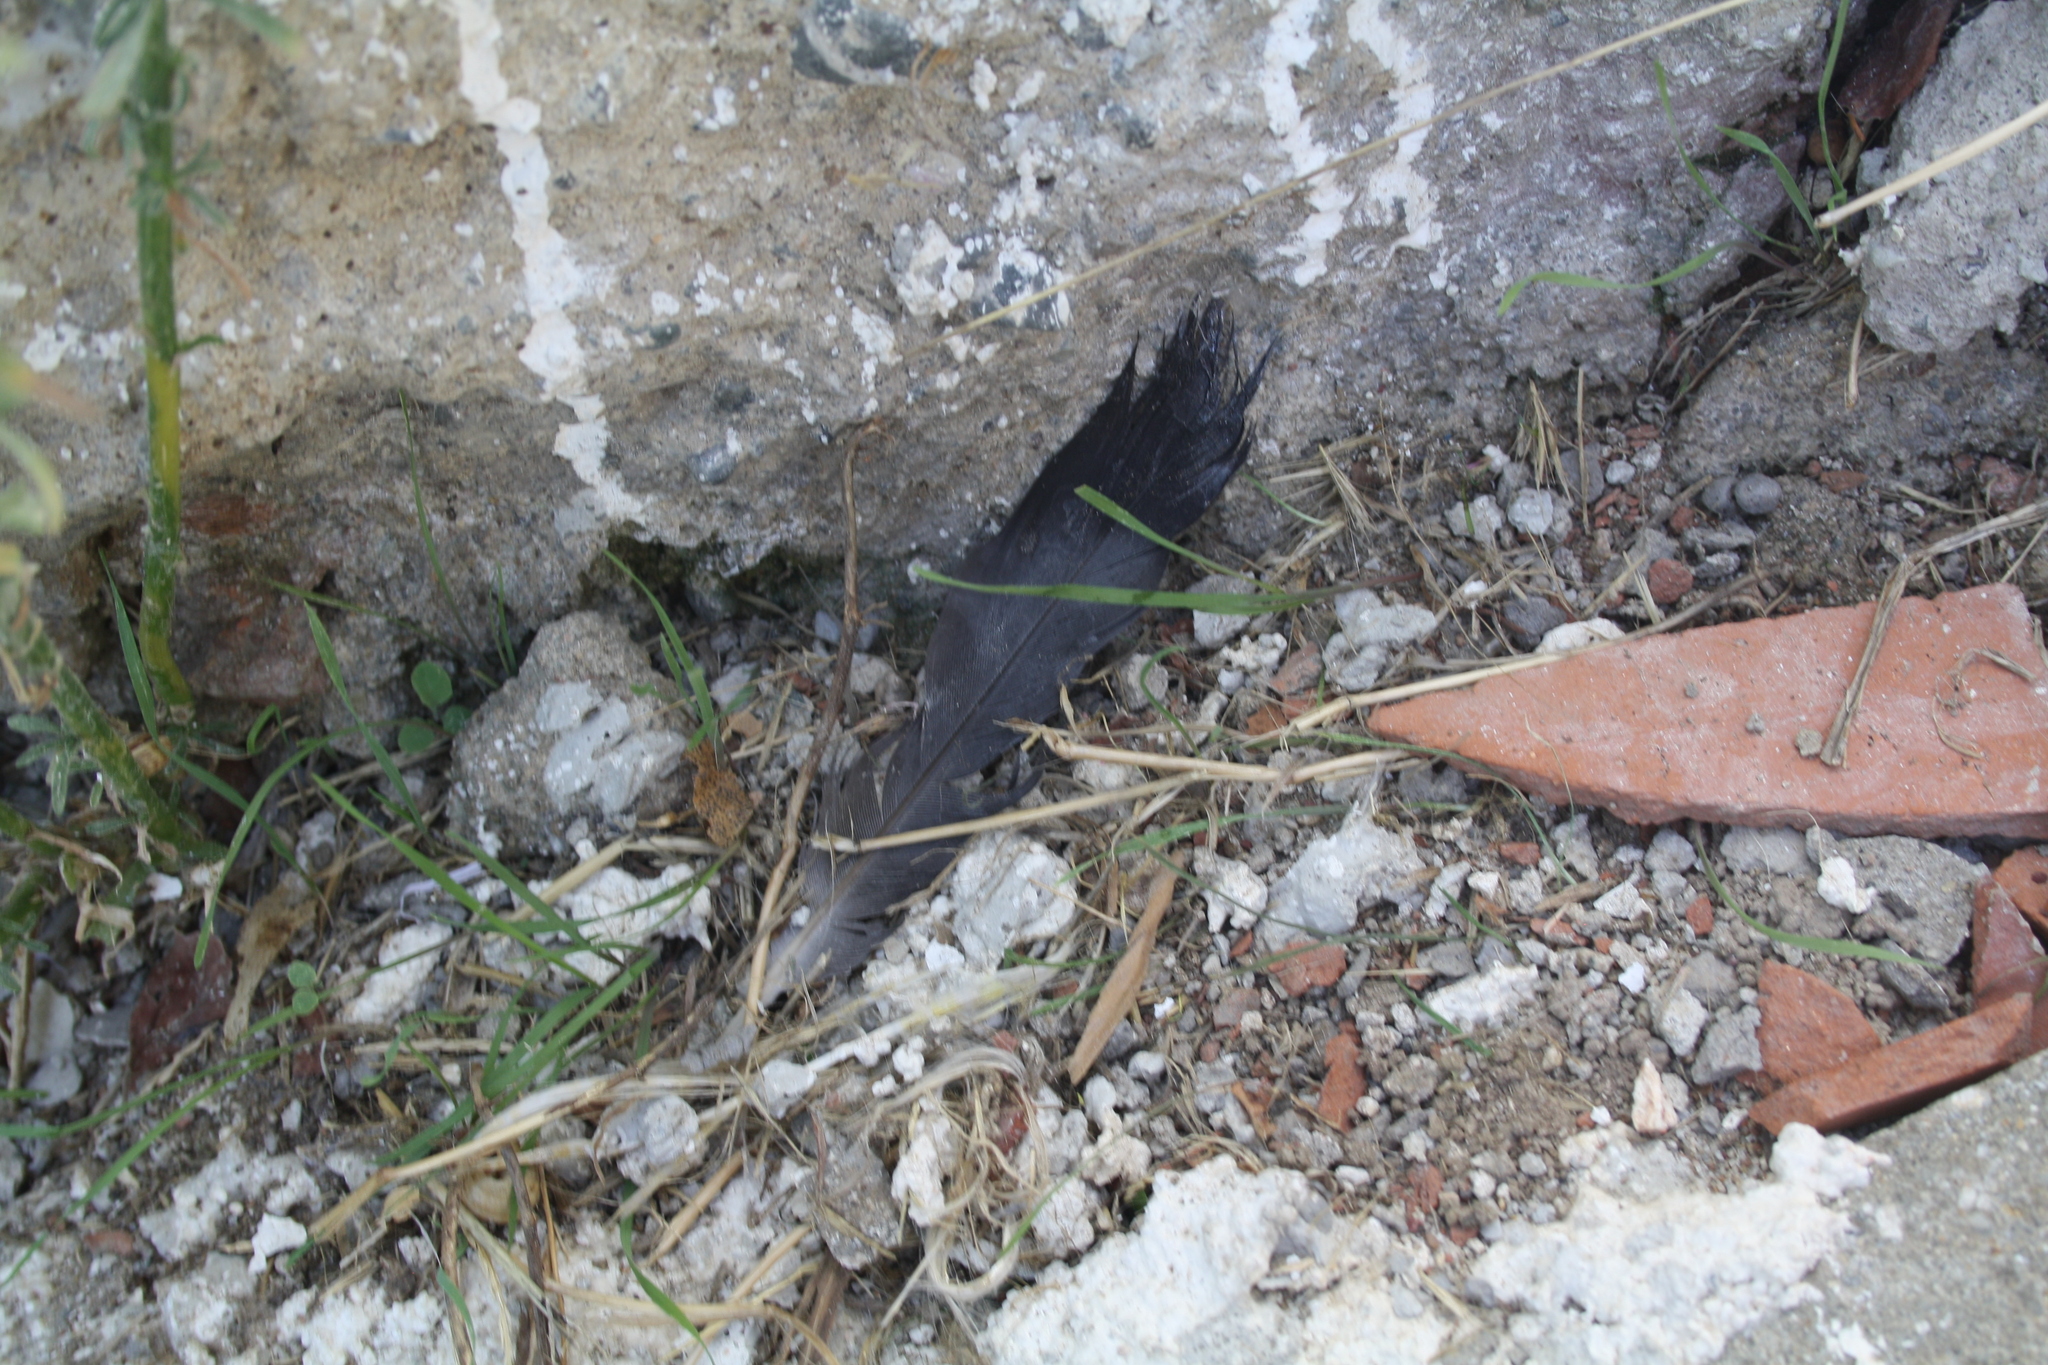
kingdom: Animalia
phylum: Chordata
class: Aves
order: Columbiformes
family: Columbidae
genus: Columba
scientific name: Columba livia
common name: Rock pigeon
